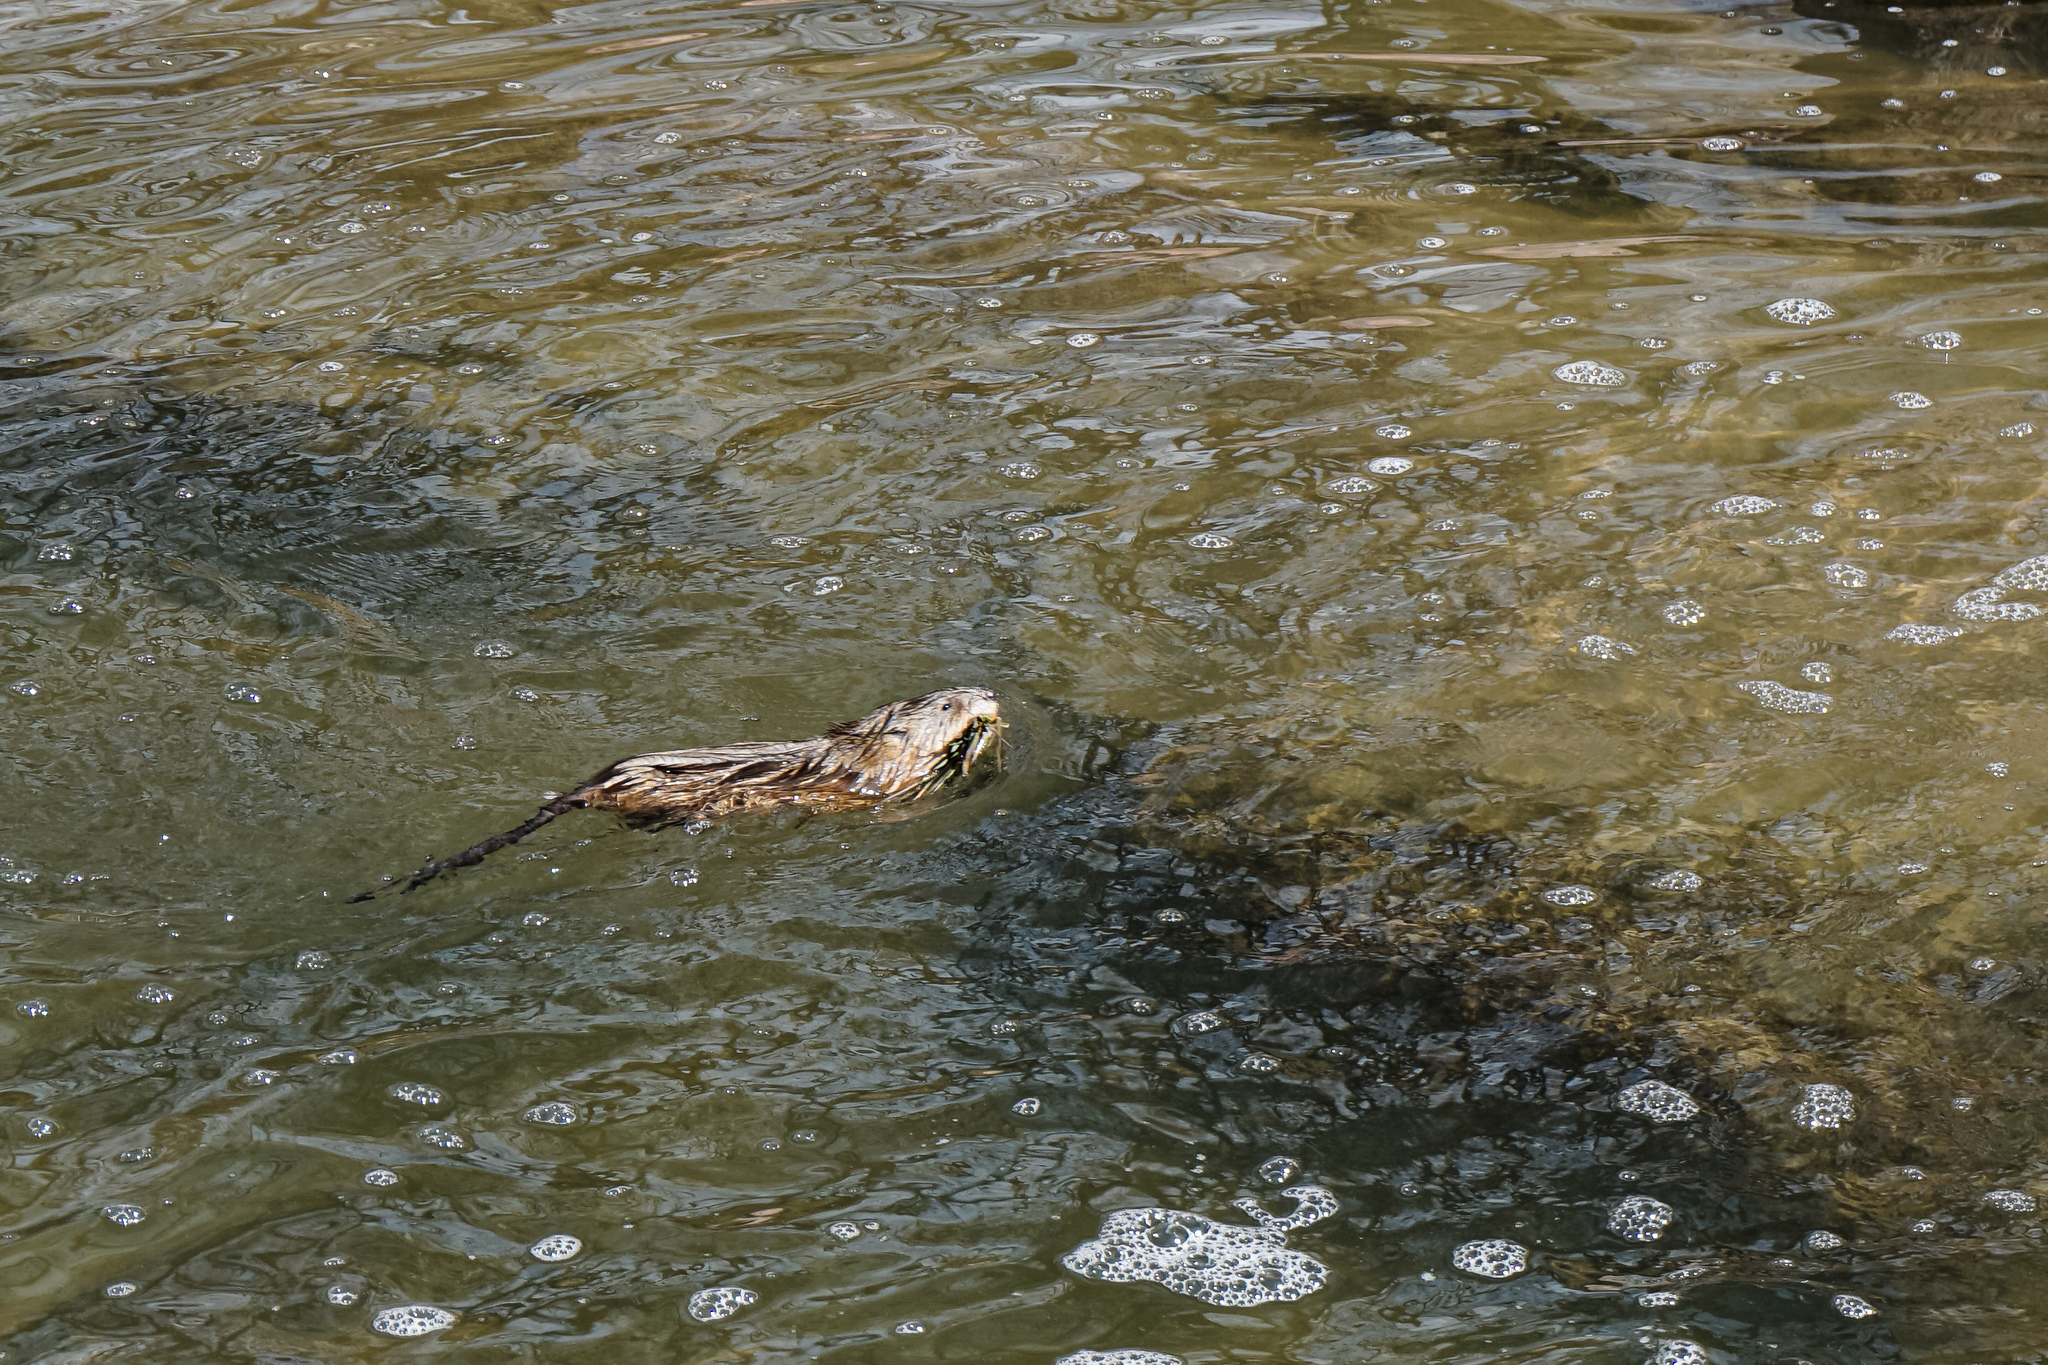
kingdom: Animalia
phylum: Chordata
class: Mammalia
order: Rodentia
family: Cricetidae
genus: Ondatra
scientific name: Ondatra zibethicus
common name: Muskrat
